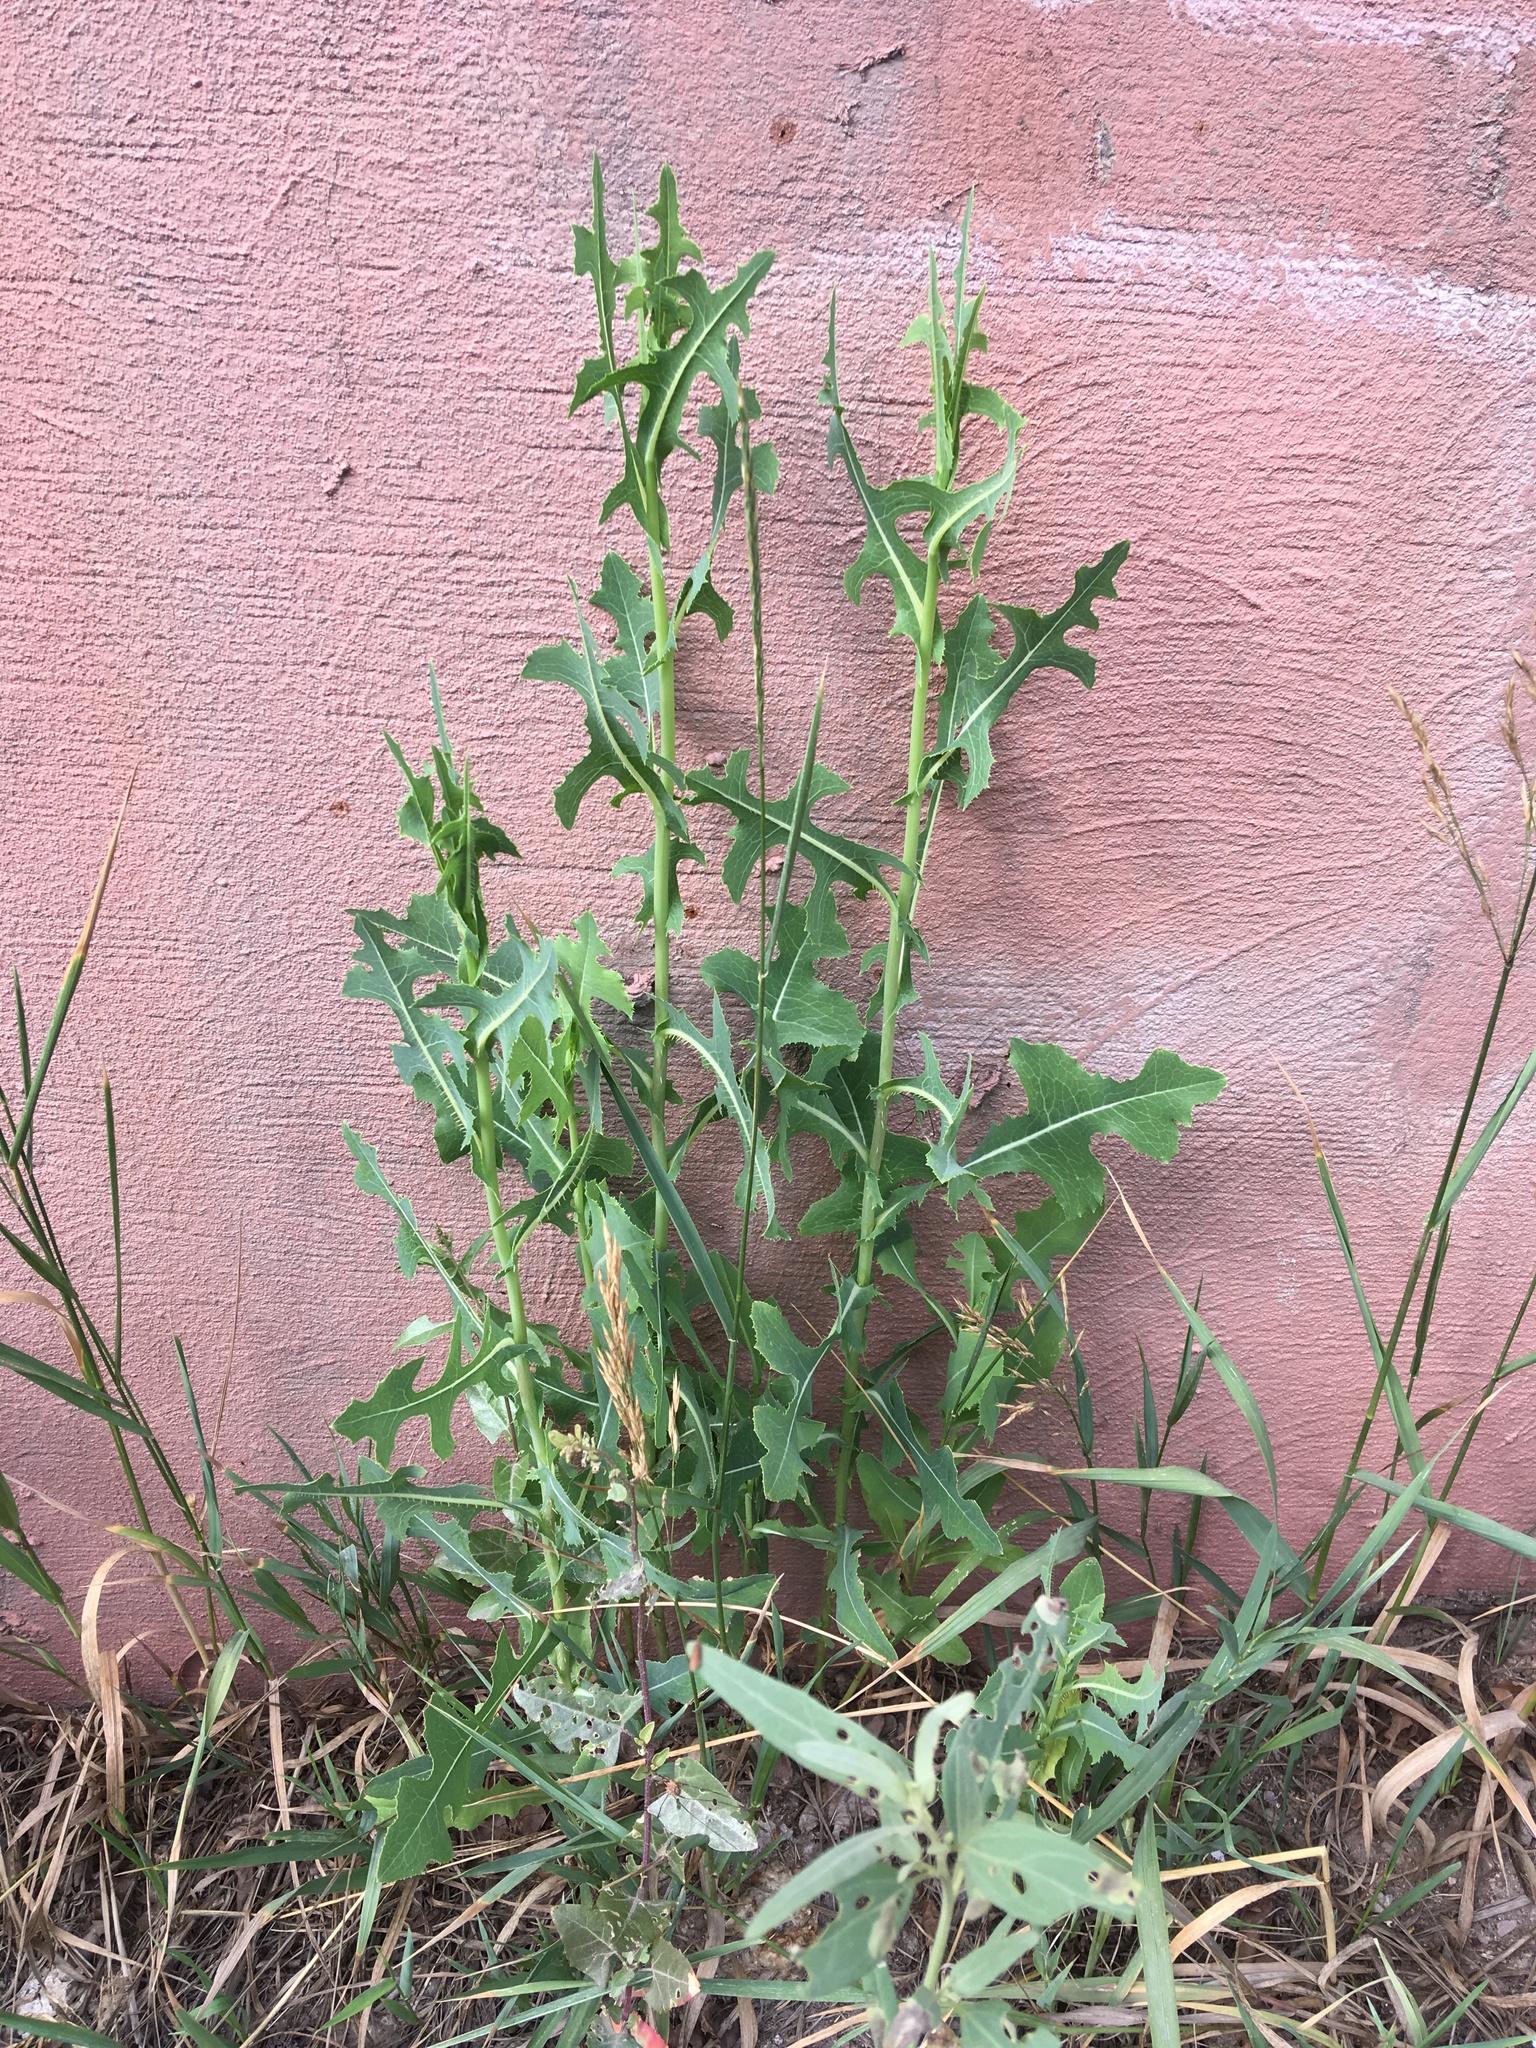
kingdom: Plantae
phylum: Tracheophyta
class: Magnoliopsida
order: Asterales
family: Asteraceae
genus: Lactuca
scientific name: Lactuca serriola
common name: Prickly lettuce
